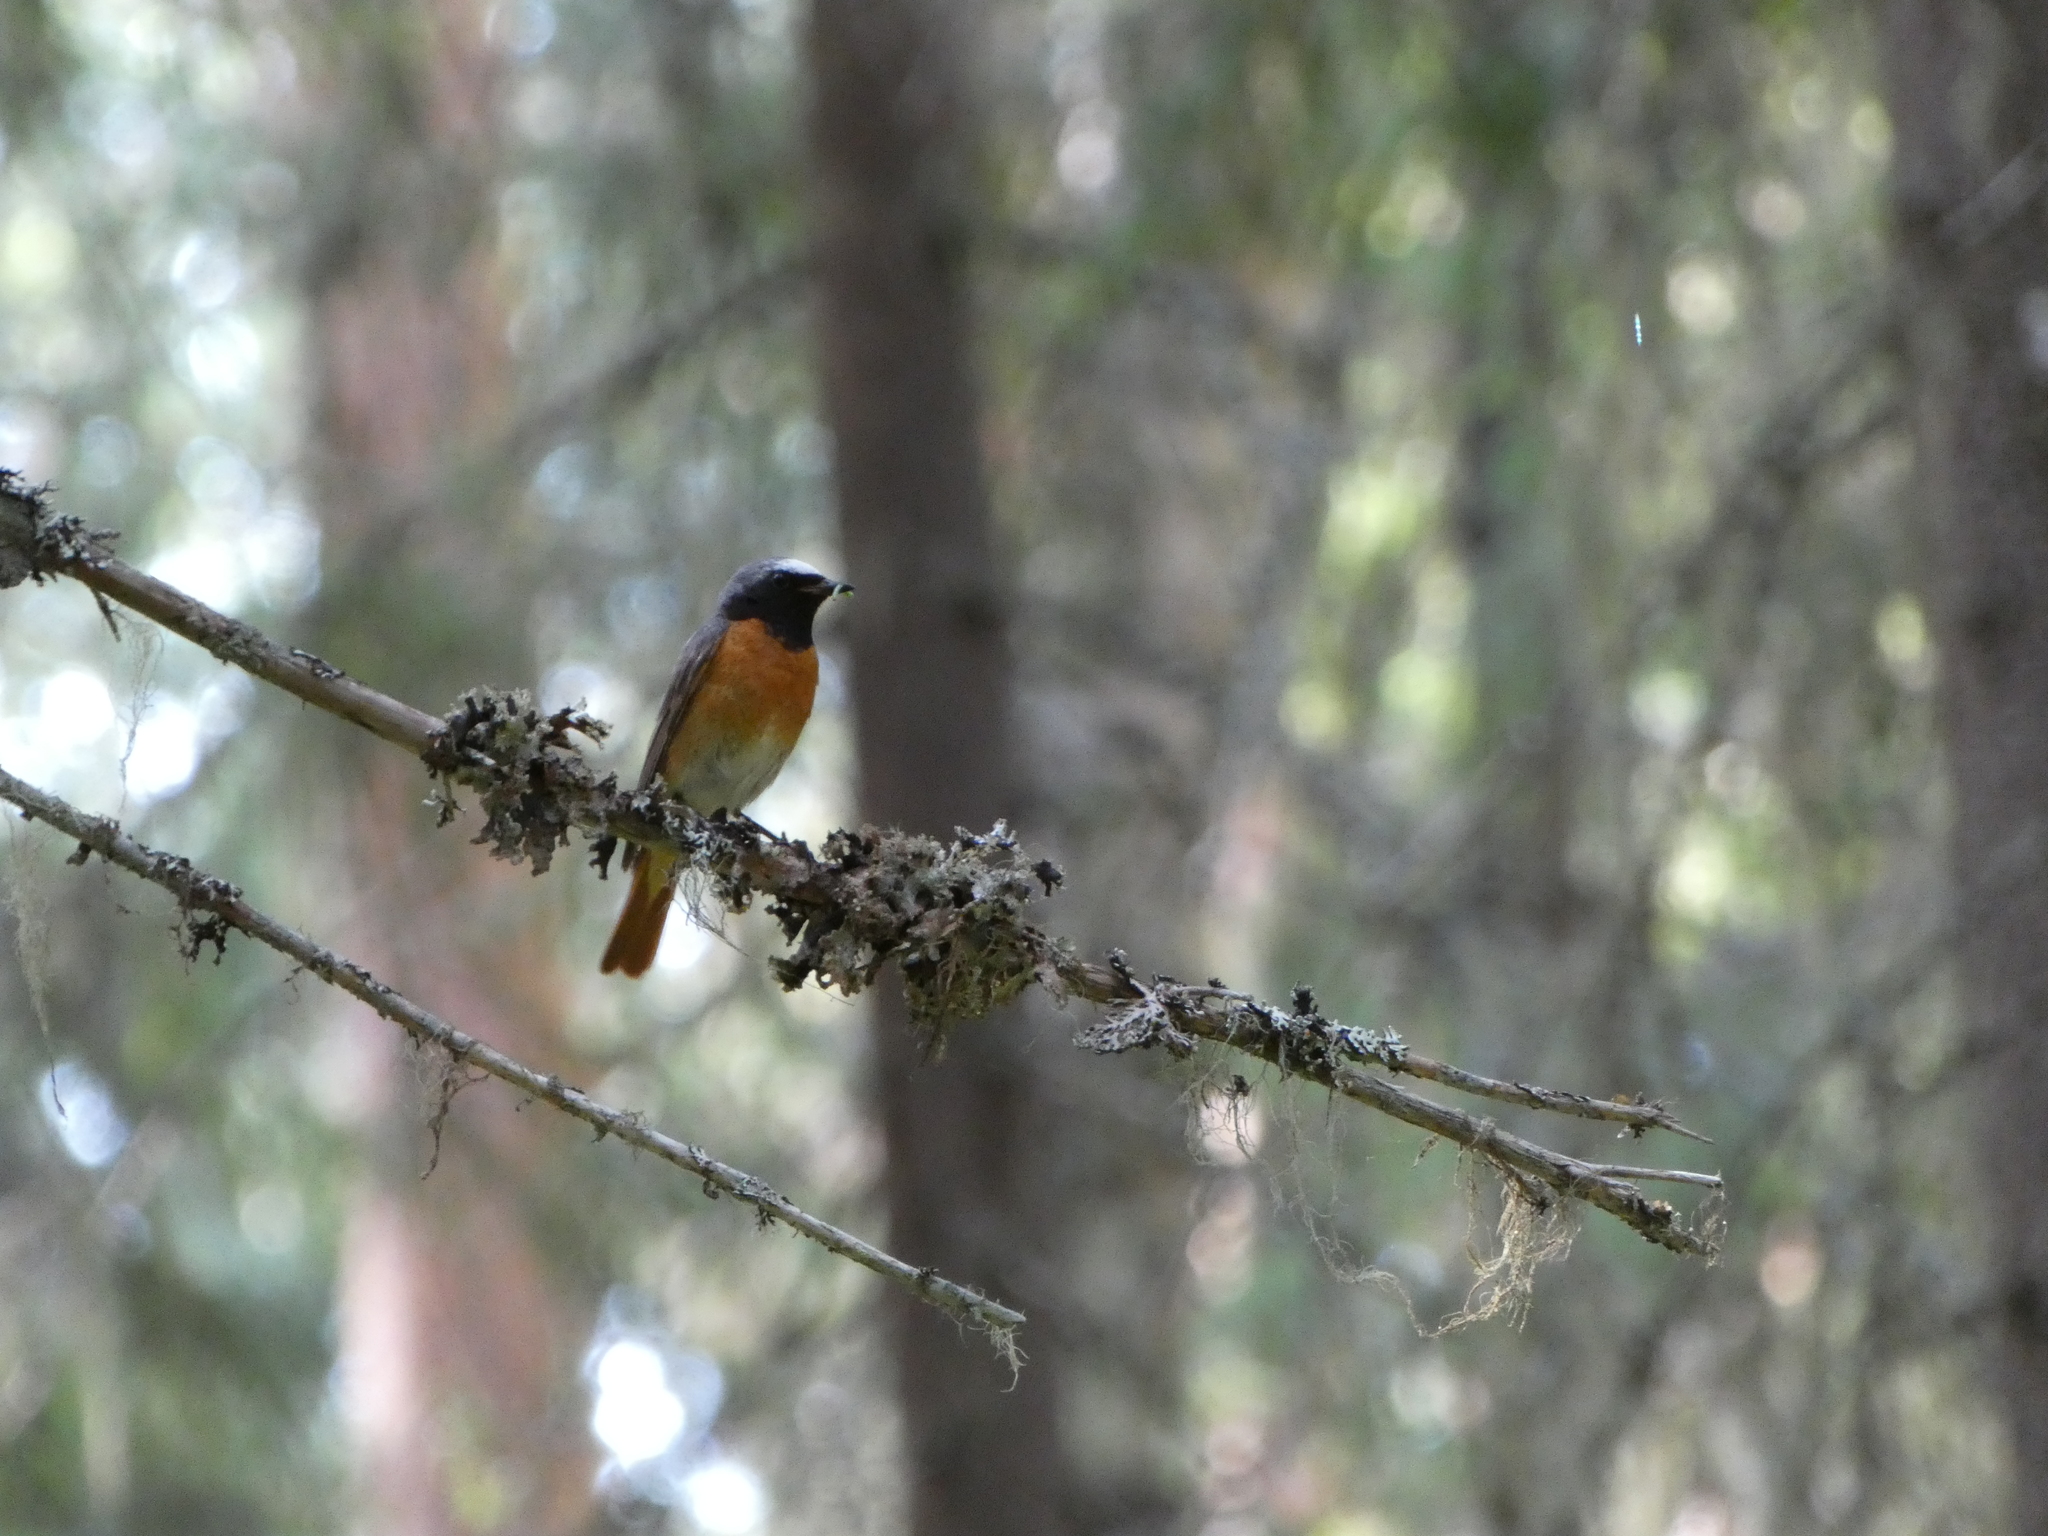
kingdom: Animalia
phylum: Chordata
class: Aves
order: Passeriformes
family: Muscicapidae
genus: Phoenicurus
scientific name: Phoenicurus phoenicurus
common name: Common redstart
